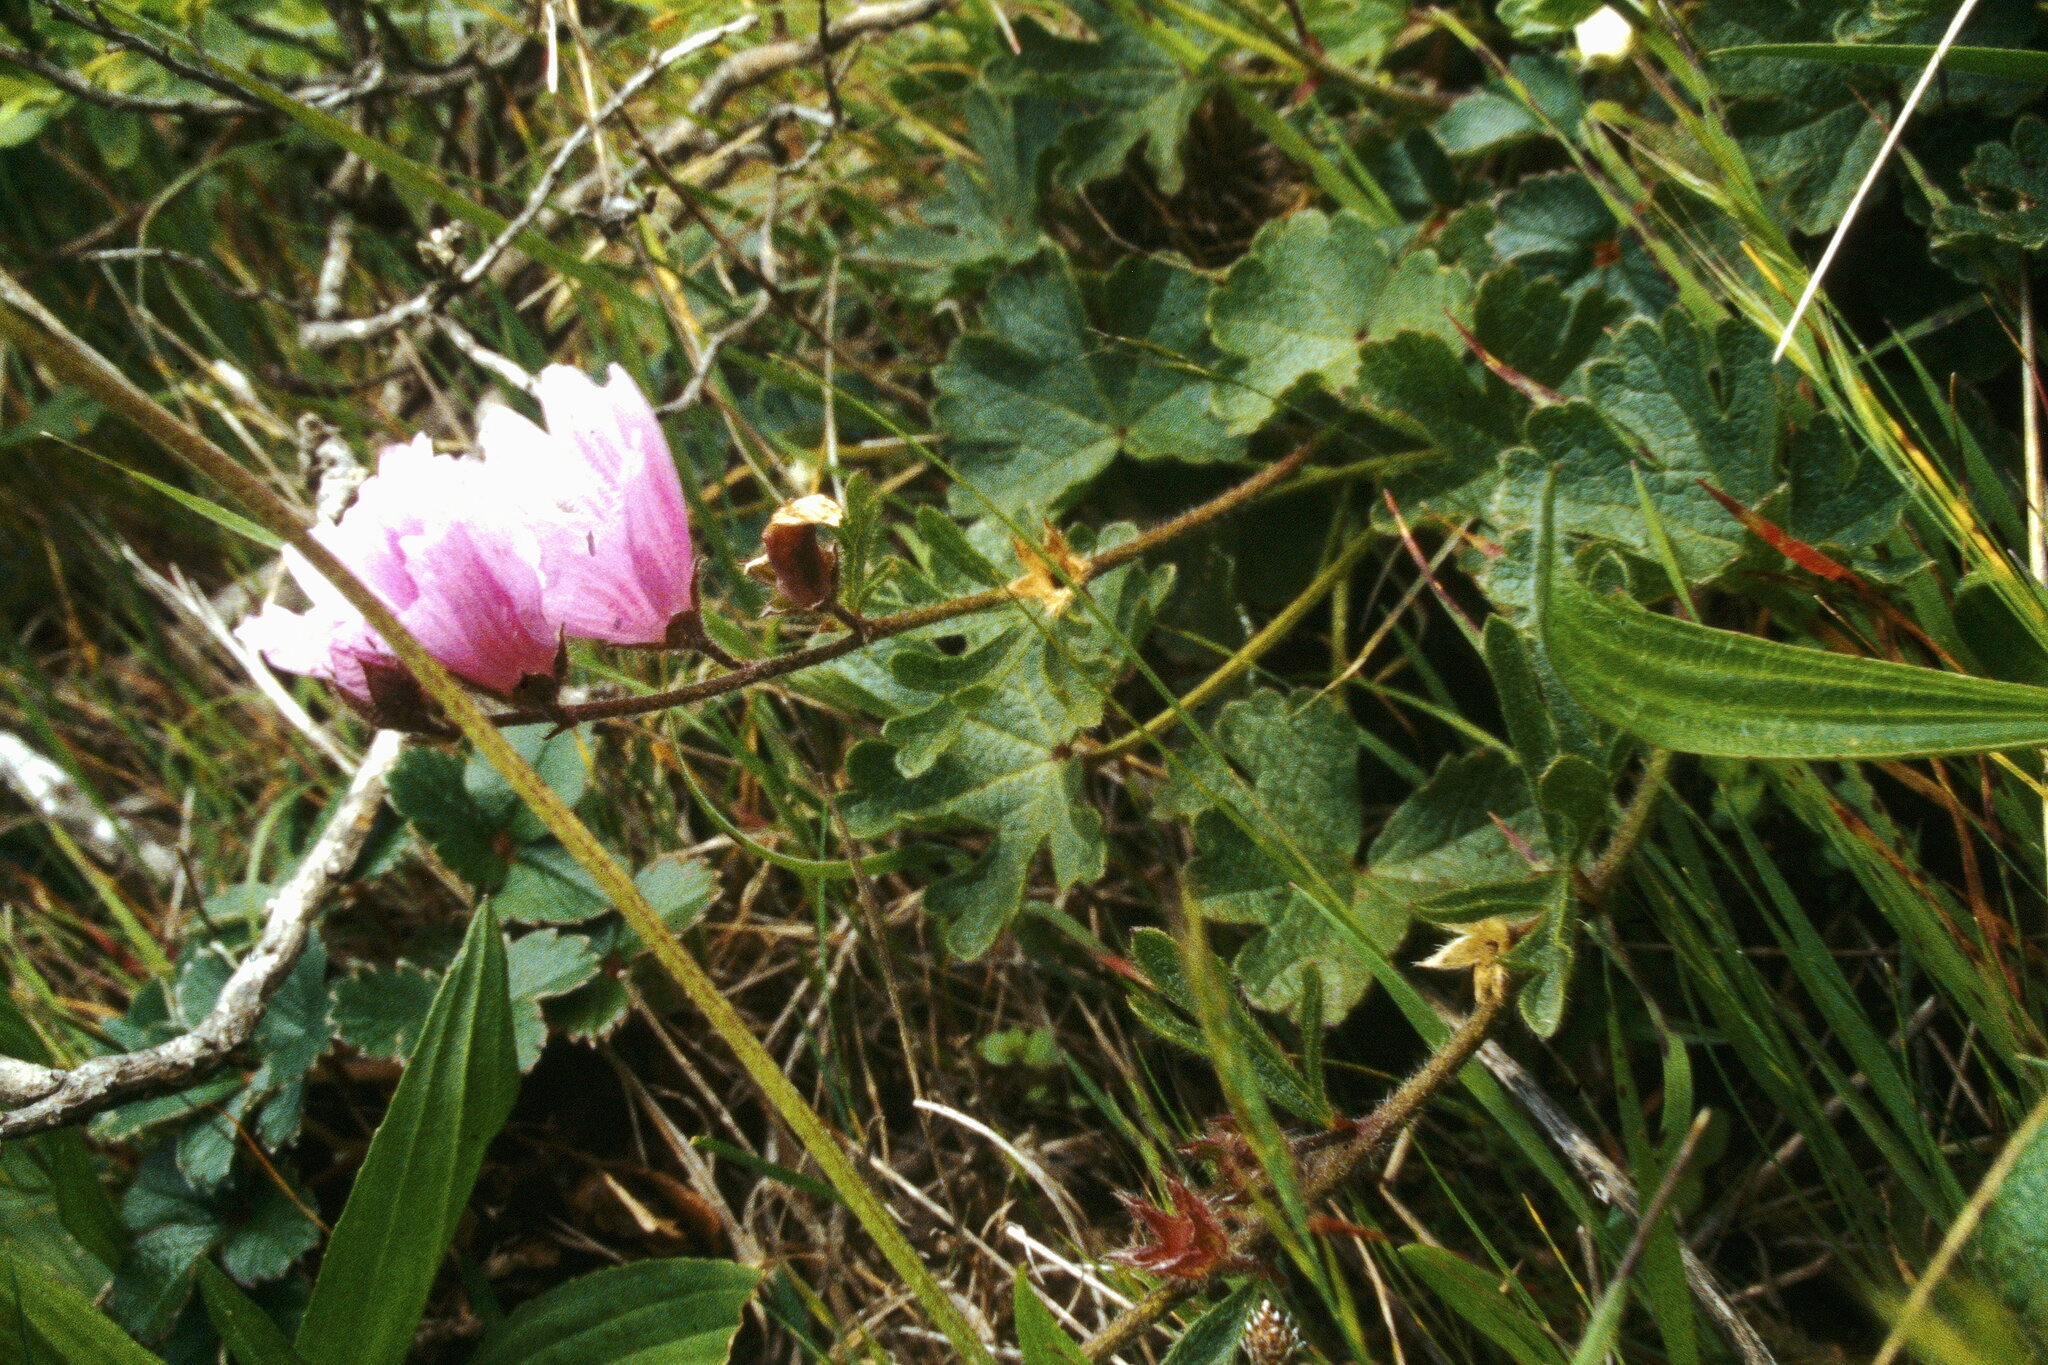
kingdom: Plantae
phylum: Tracheophyta
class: Magnoliopsida
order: Malvales
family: Malvaceae
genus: Sidalcea
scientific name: Sidalcea malviflora
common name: Greek mallow
